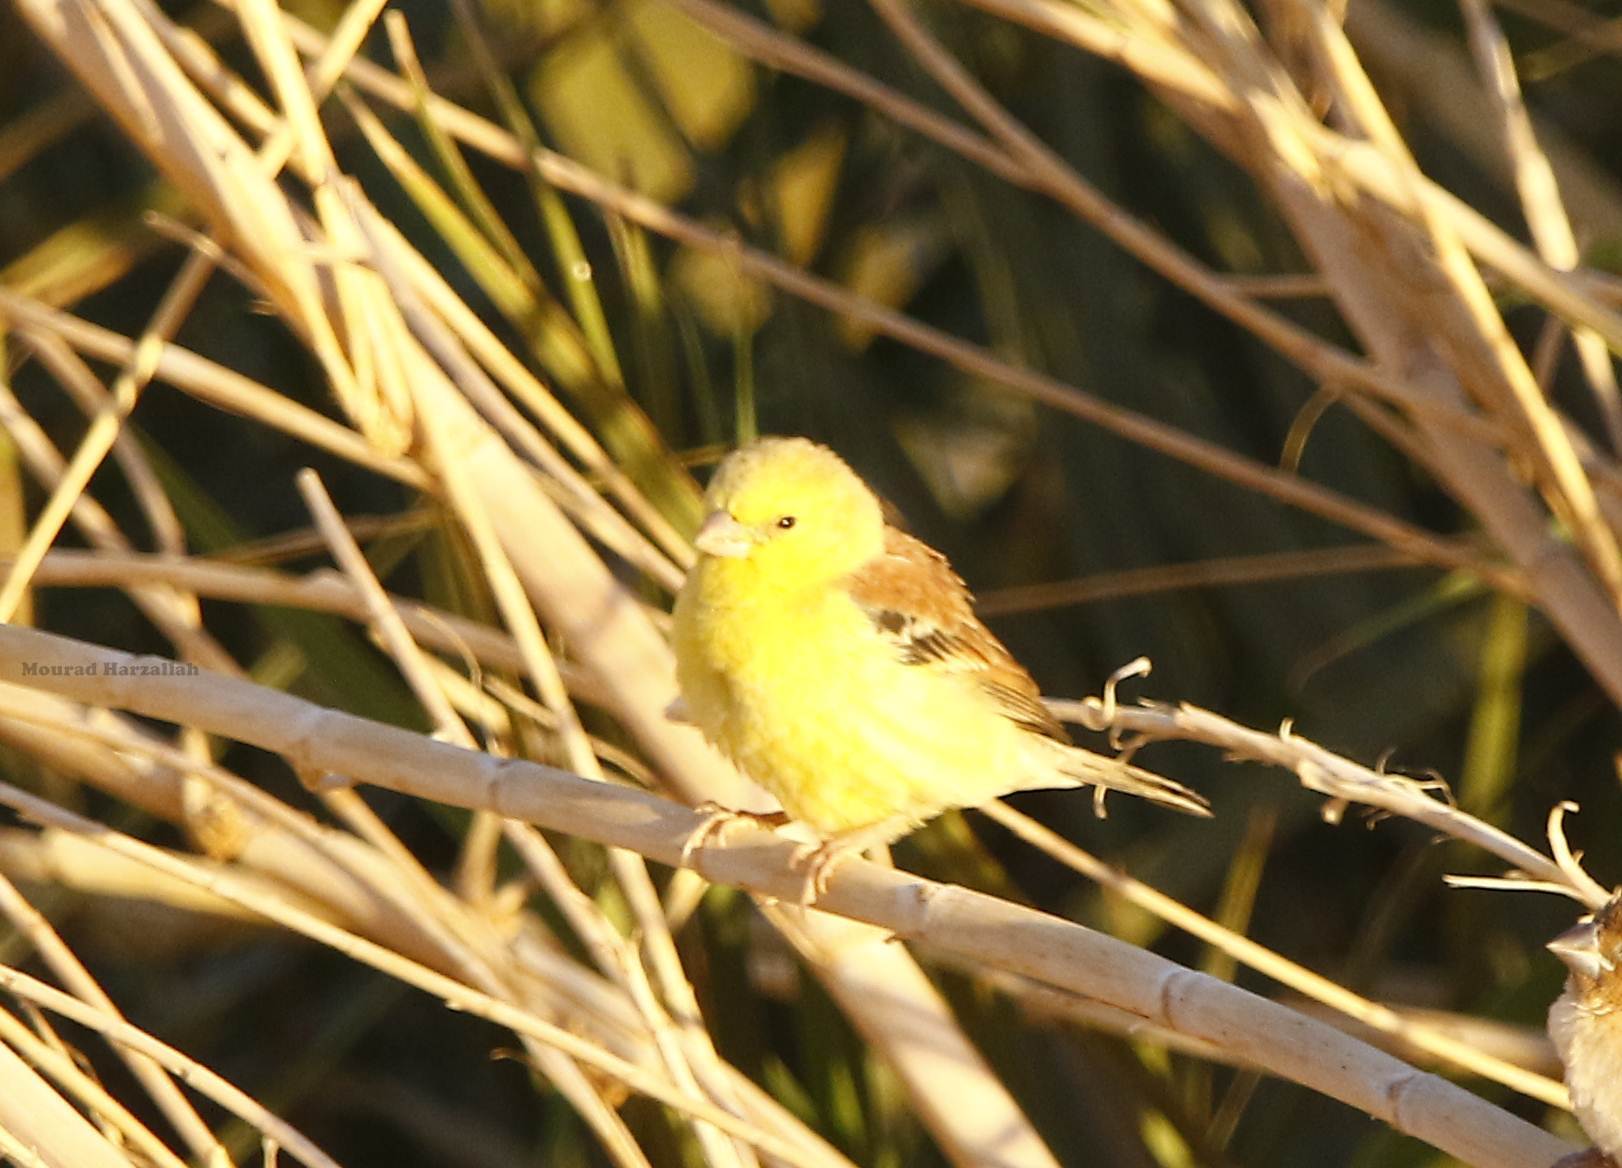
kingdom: Animalia
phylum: Chordata
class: Aves
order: Passeriformes
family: Passeridae
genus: Passer
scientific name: Passer luteus
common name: Sudan golden sparrow
